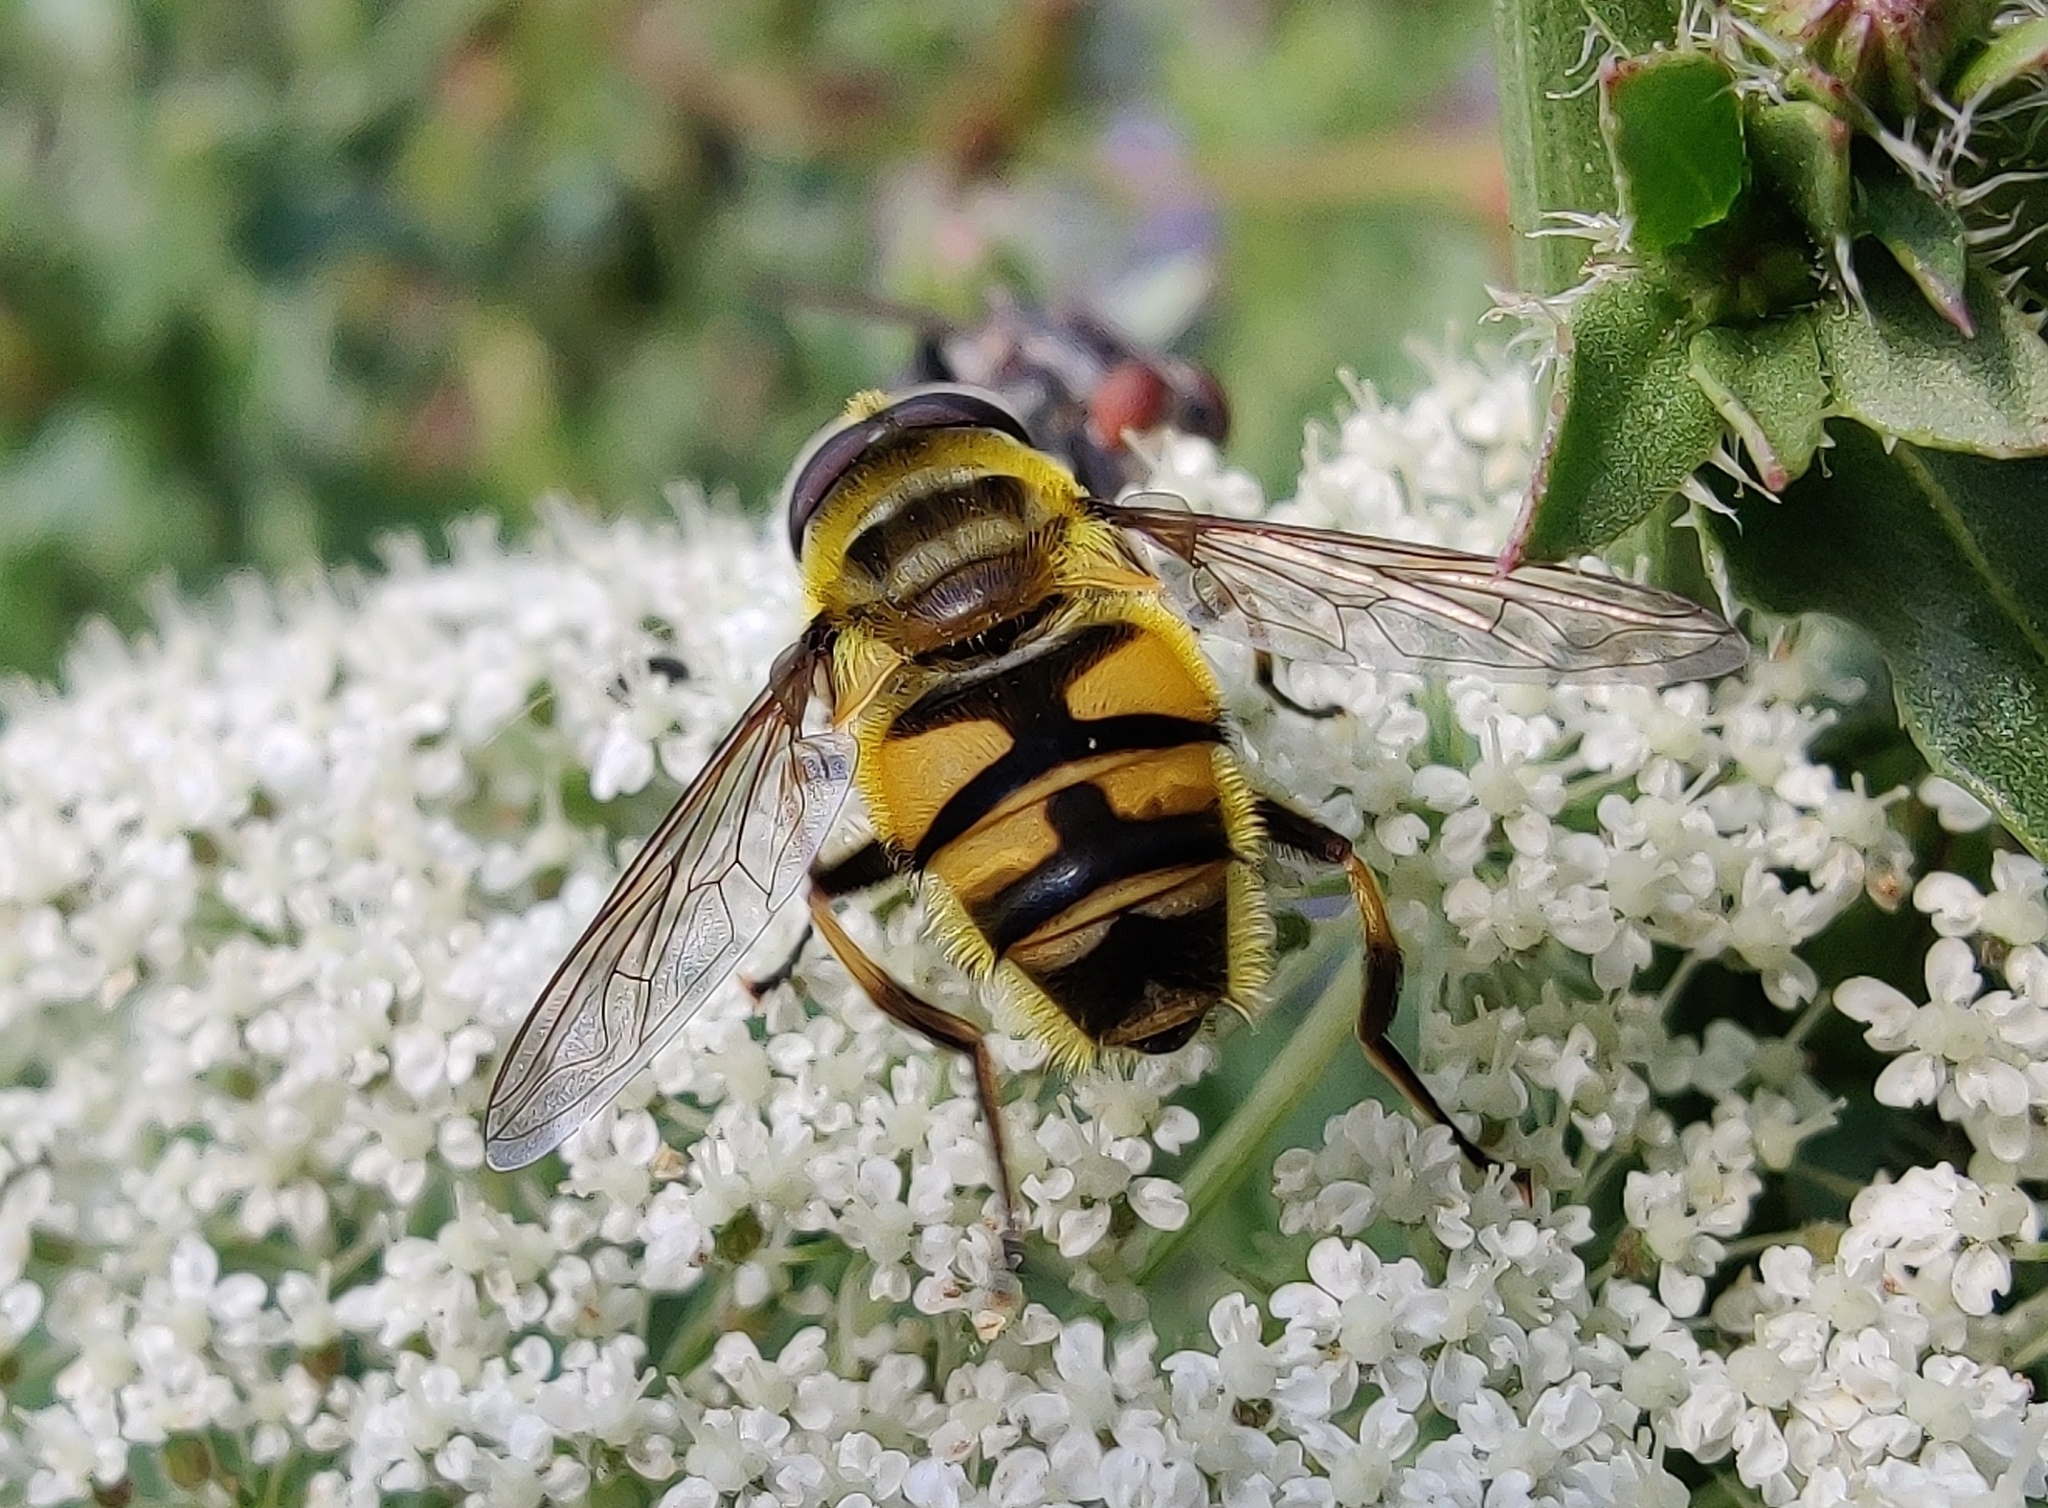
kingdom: Animalia
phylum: Arthropoda
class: Insecta
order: Diptera
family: Syrphidae
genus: Myathropa
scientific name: Myathropa florea
